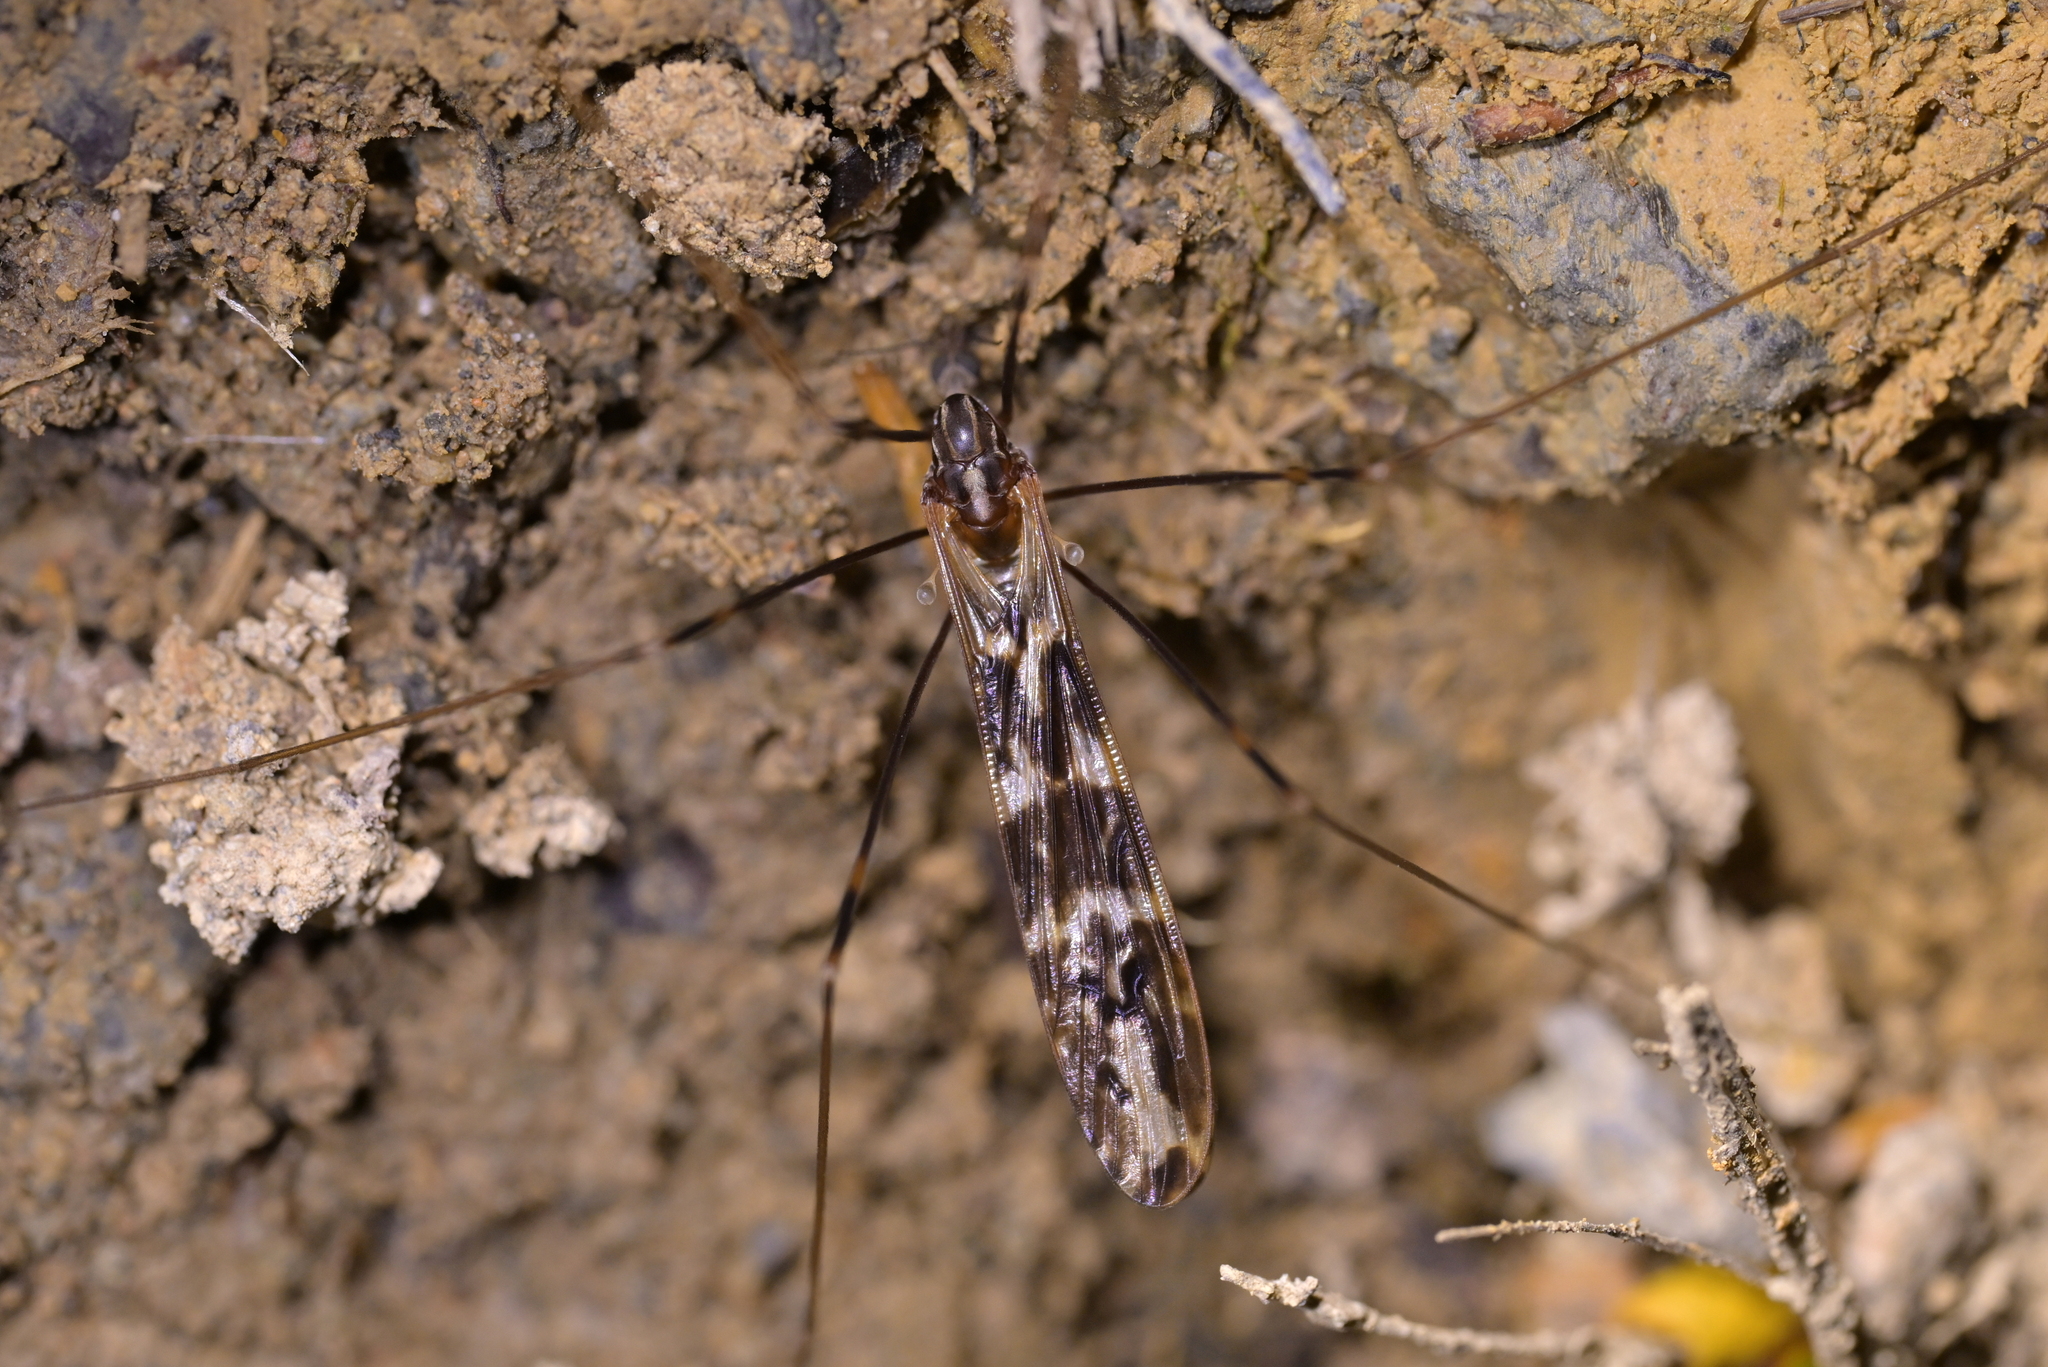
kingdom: Animalia
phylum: Arthropoda
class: Insecta
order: Diptera
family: Limoniidae
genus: Discobola
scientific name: Discobola dohrni
